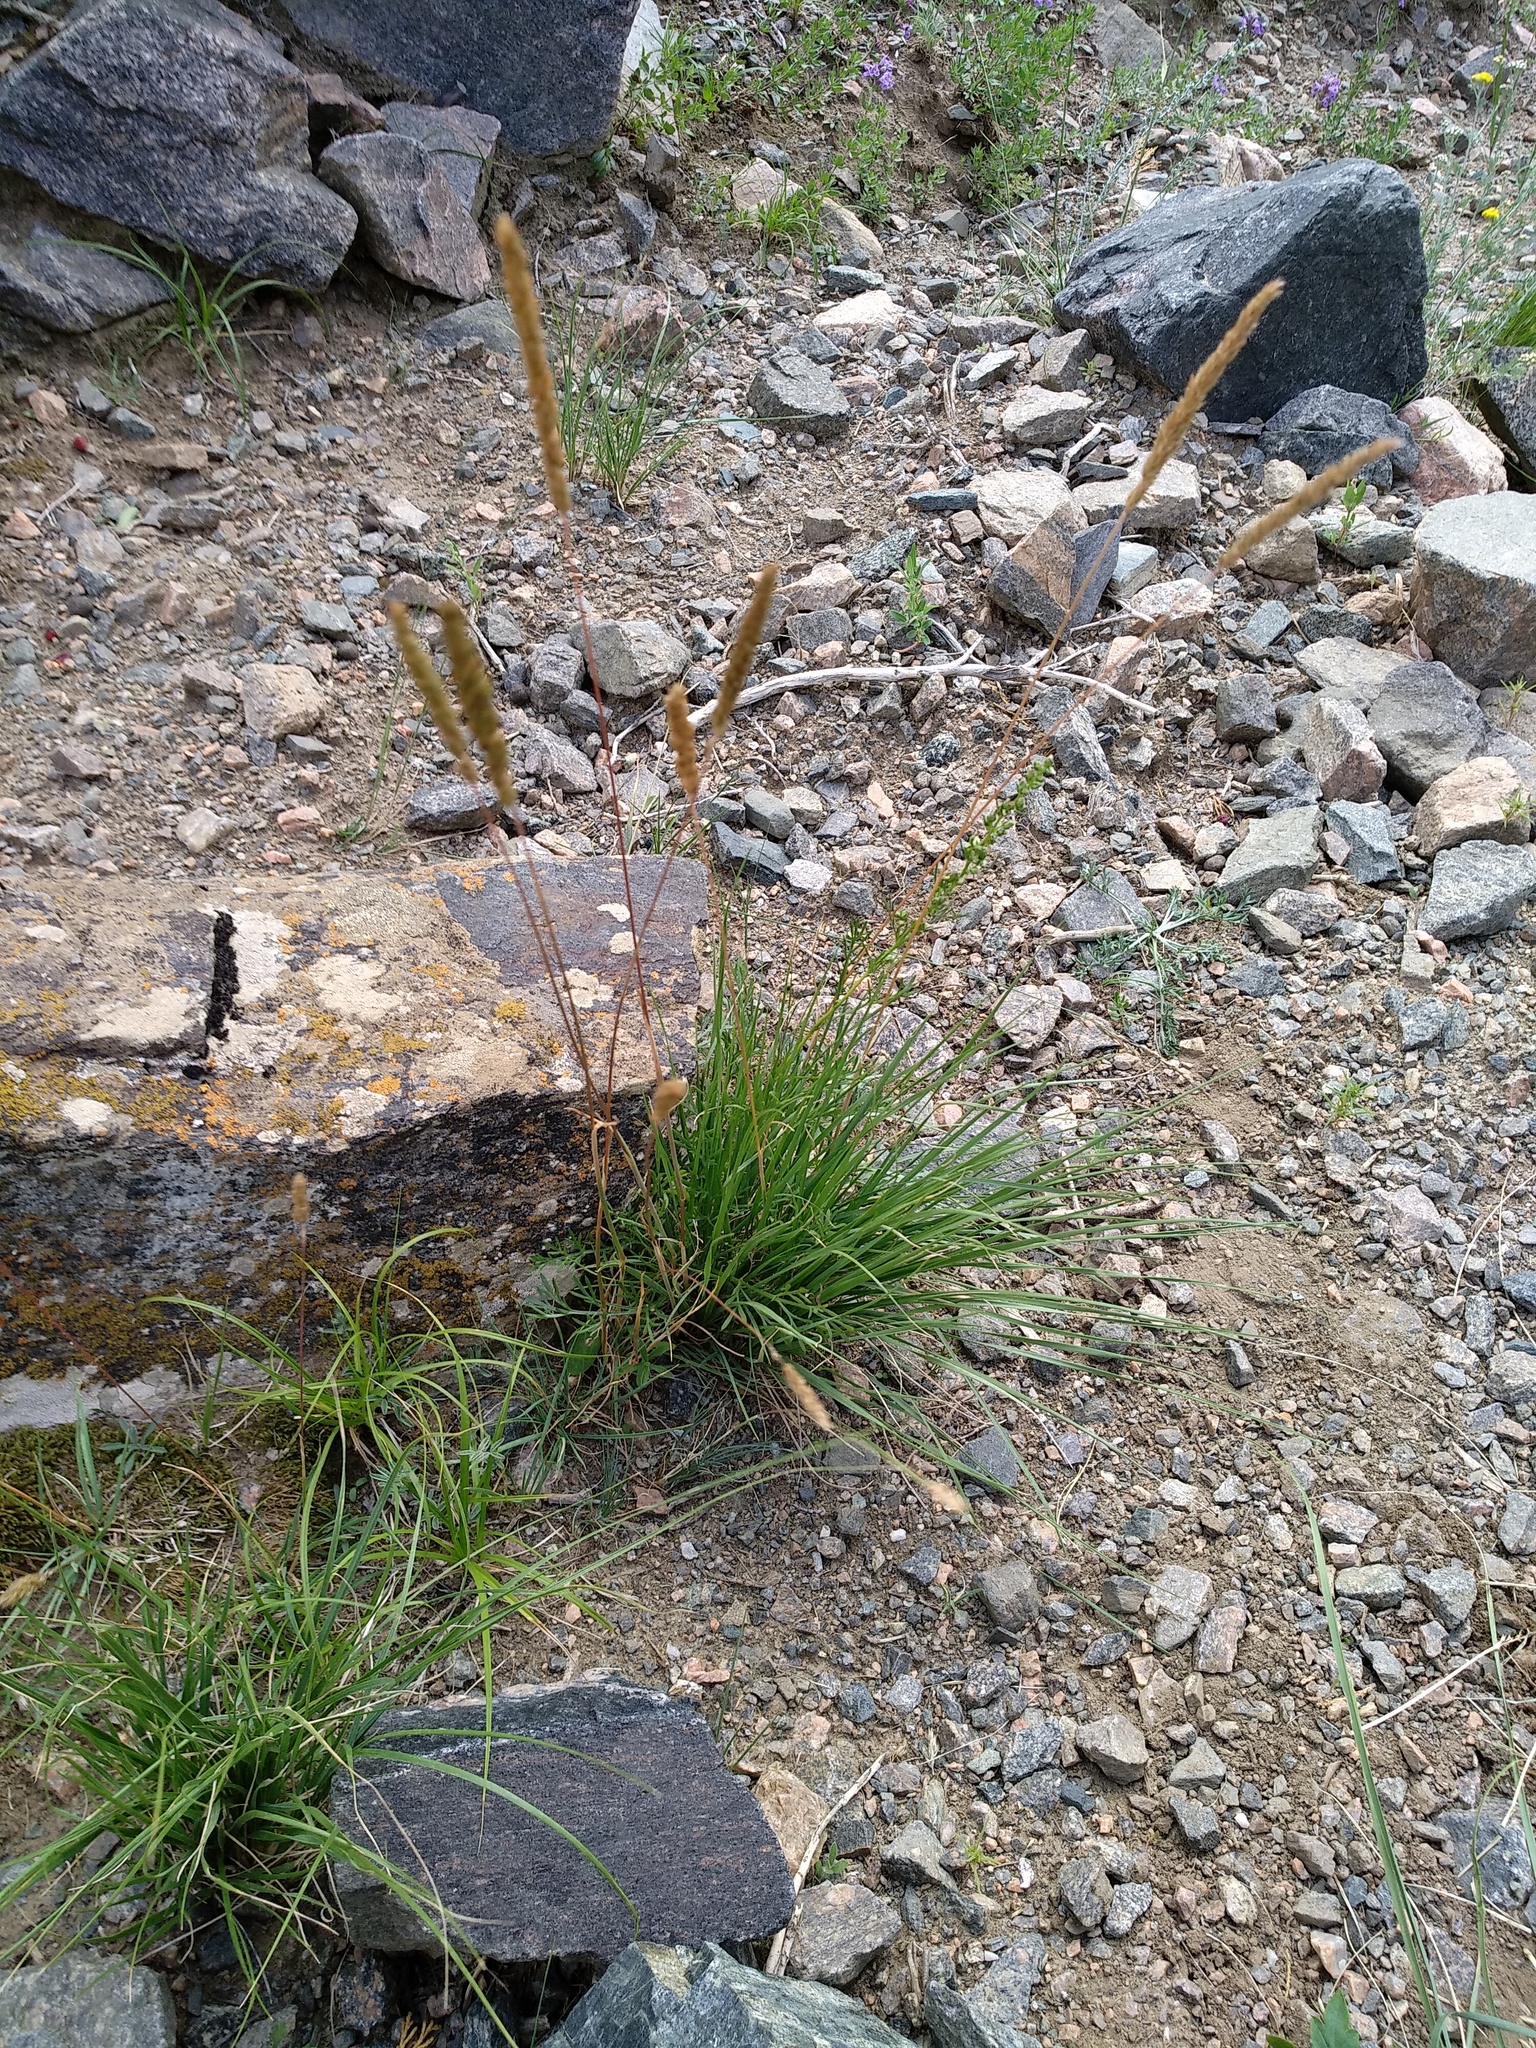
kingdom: Plantae
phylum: Tracheophyta
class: Liliopsida
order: Poales
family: Poaceae
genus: Koeleria
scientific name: Koeleria macrantha
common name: Crested hair-grass
